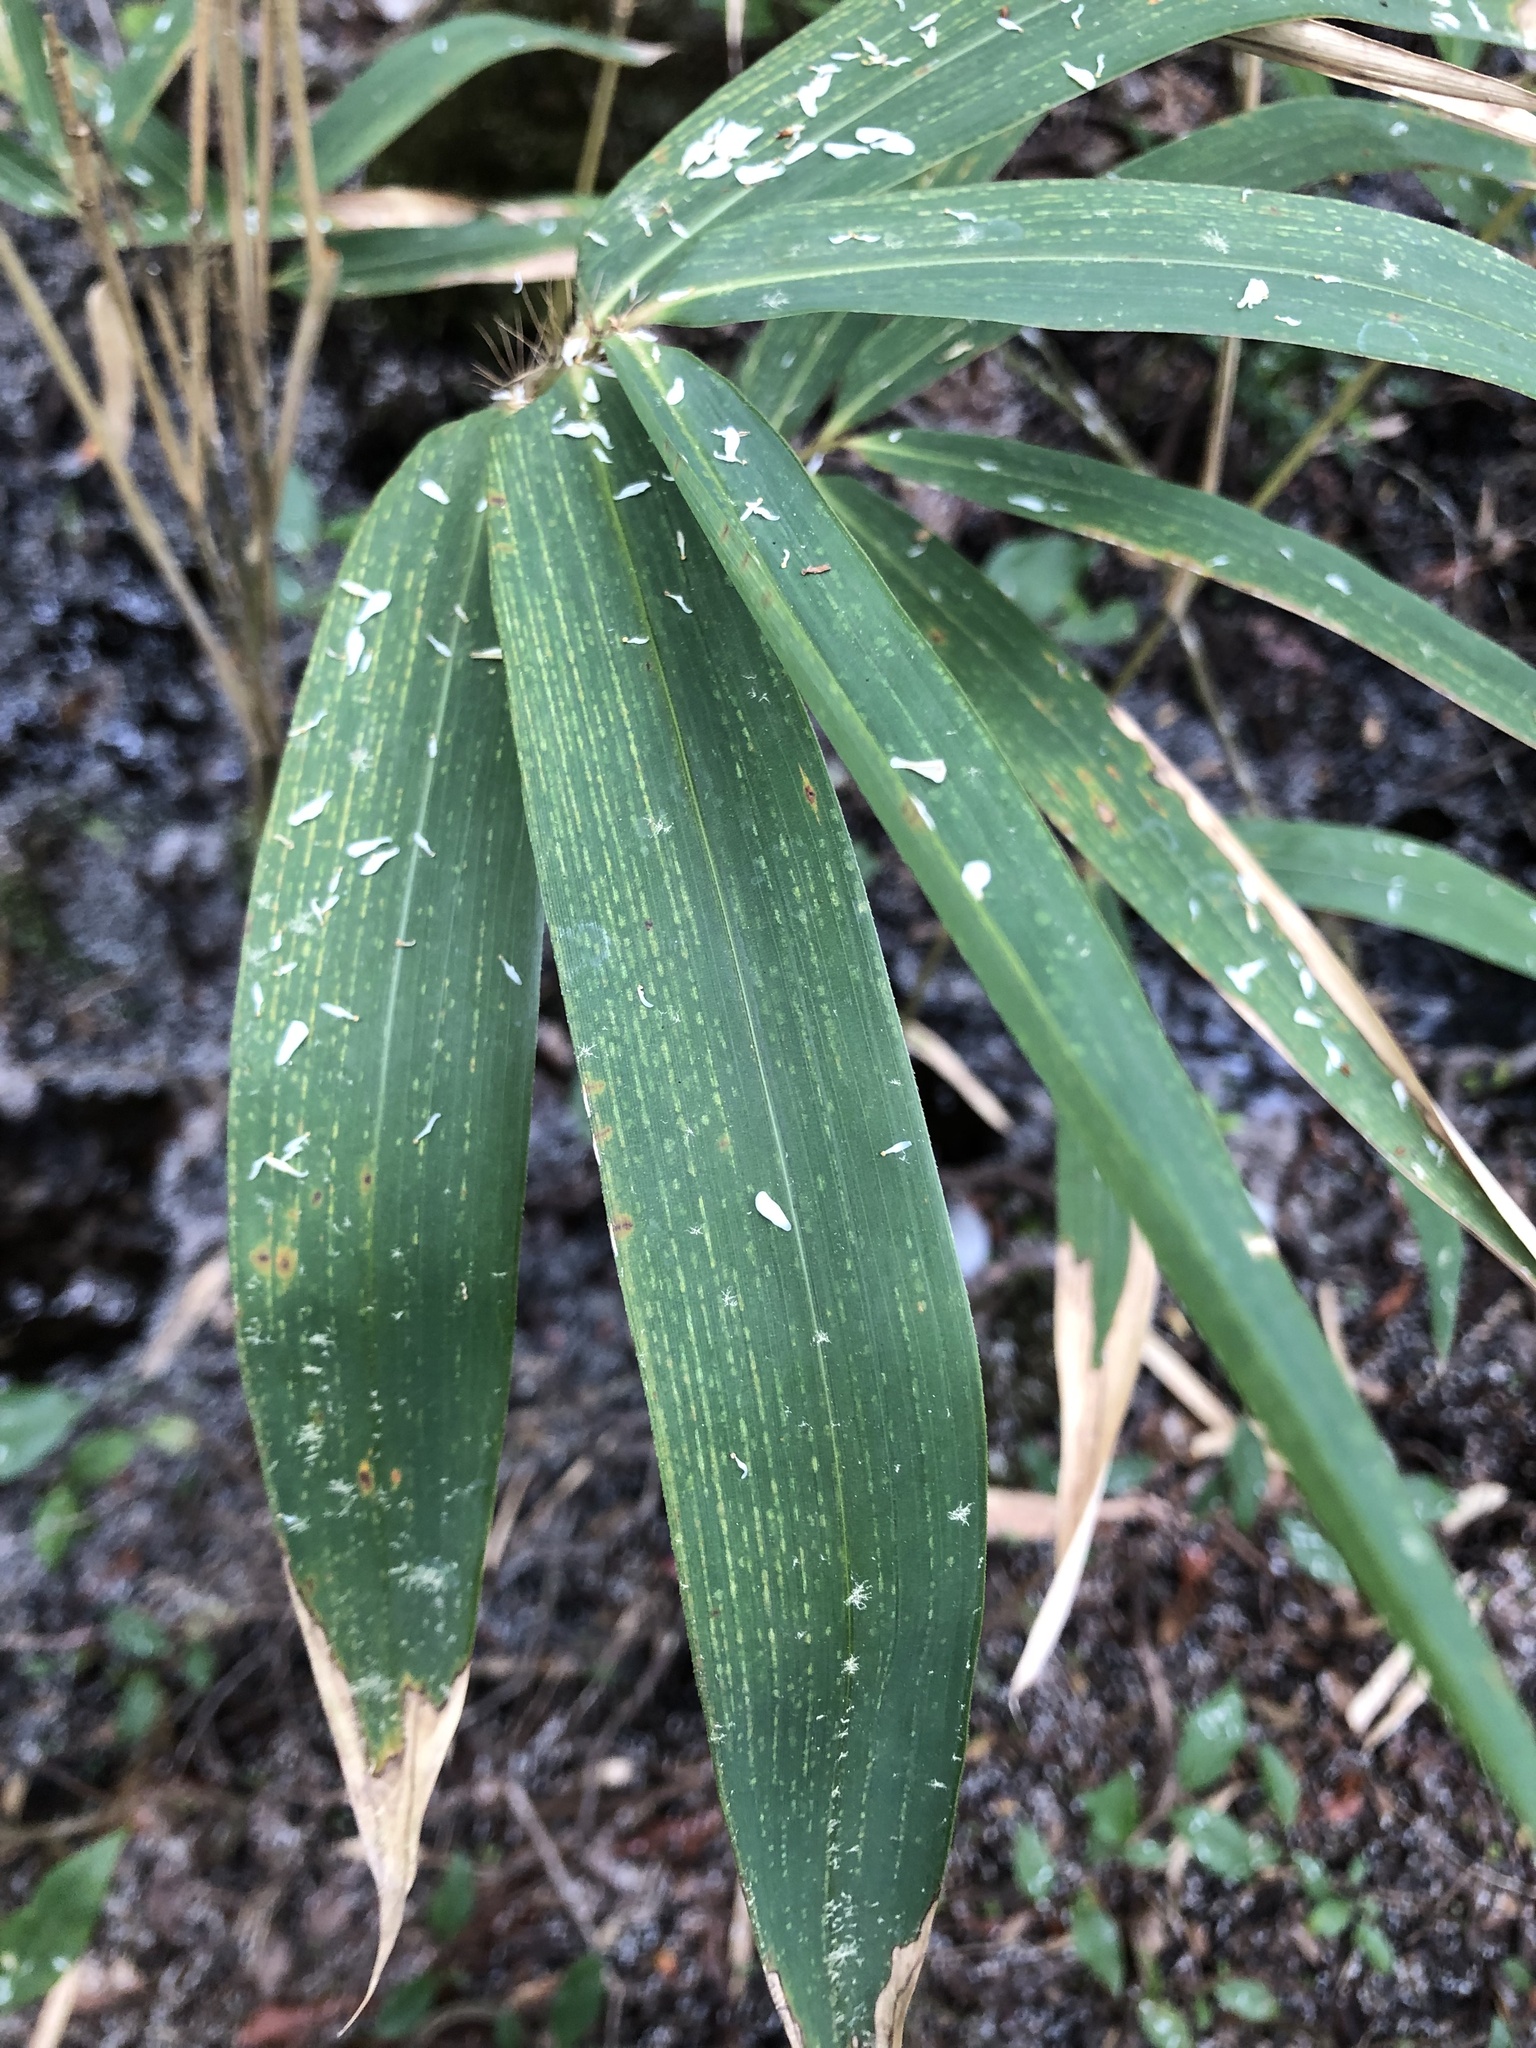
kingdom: Plantae
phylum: Tracheophyta
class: Liliopsida
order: Poales
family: Poaceae
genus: Arundinaria
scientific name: Arundinaria tecta
